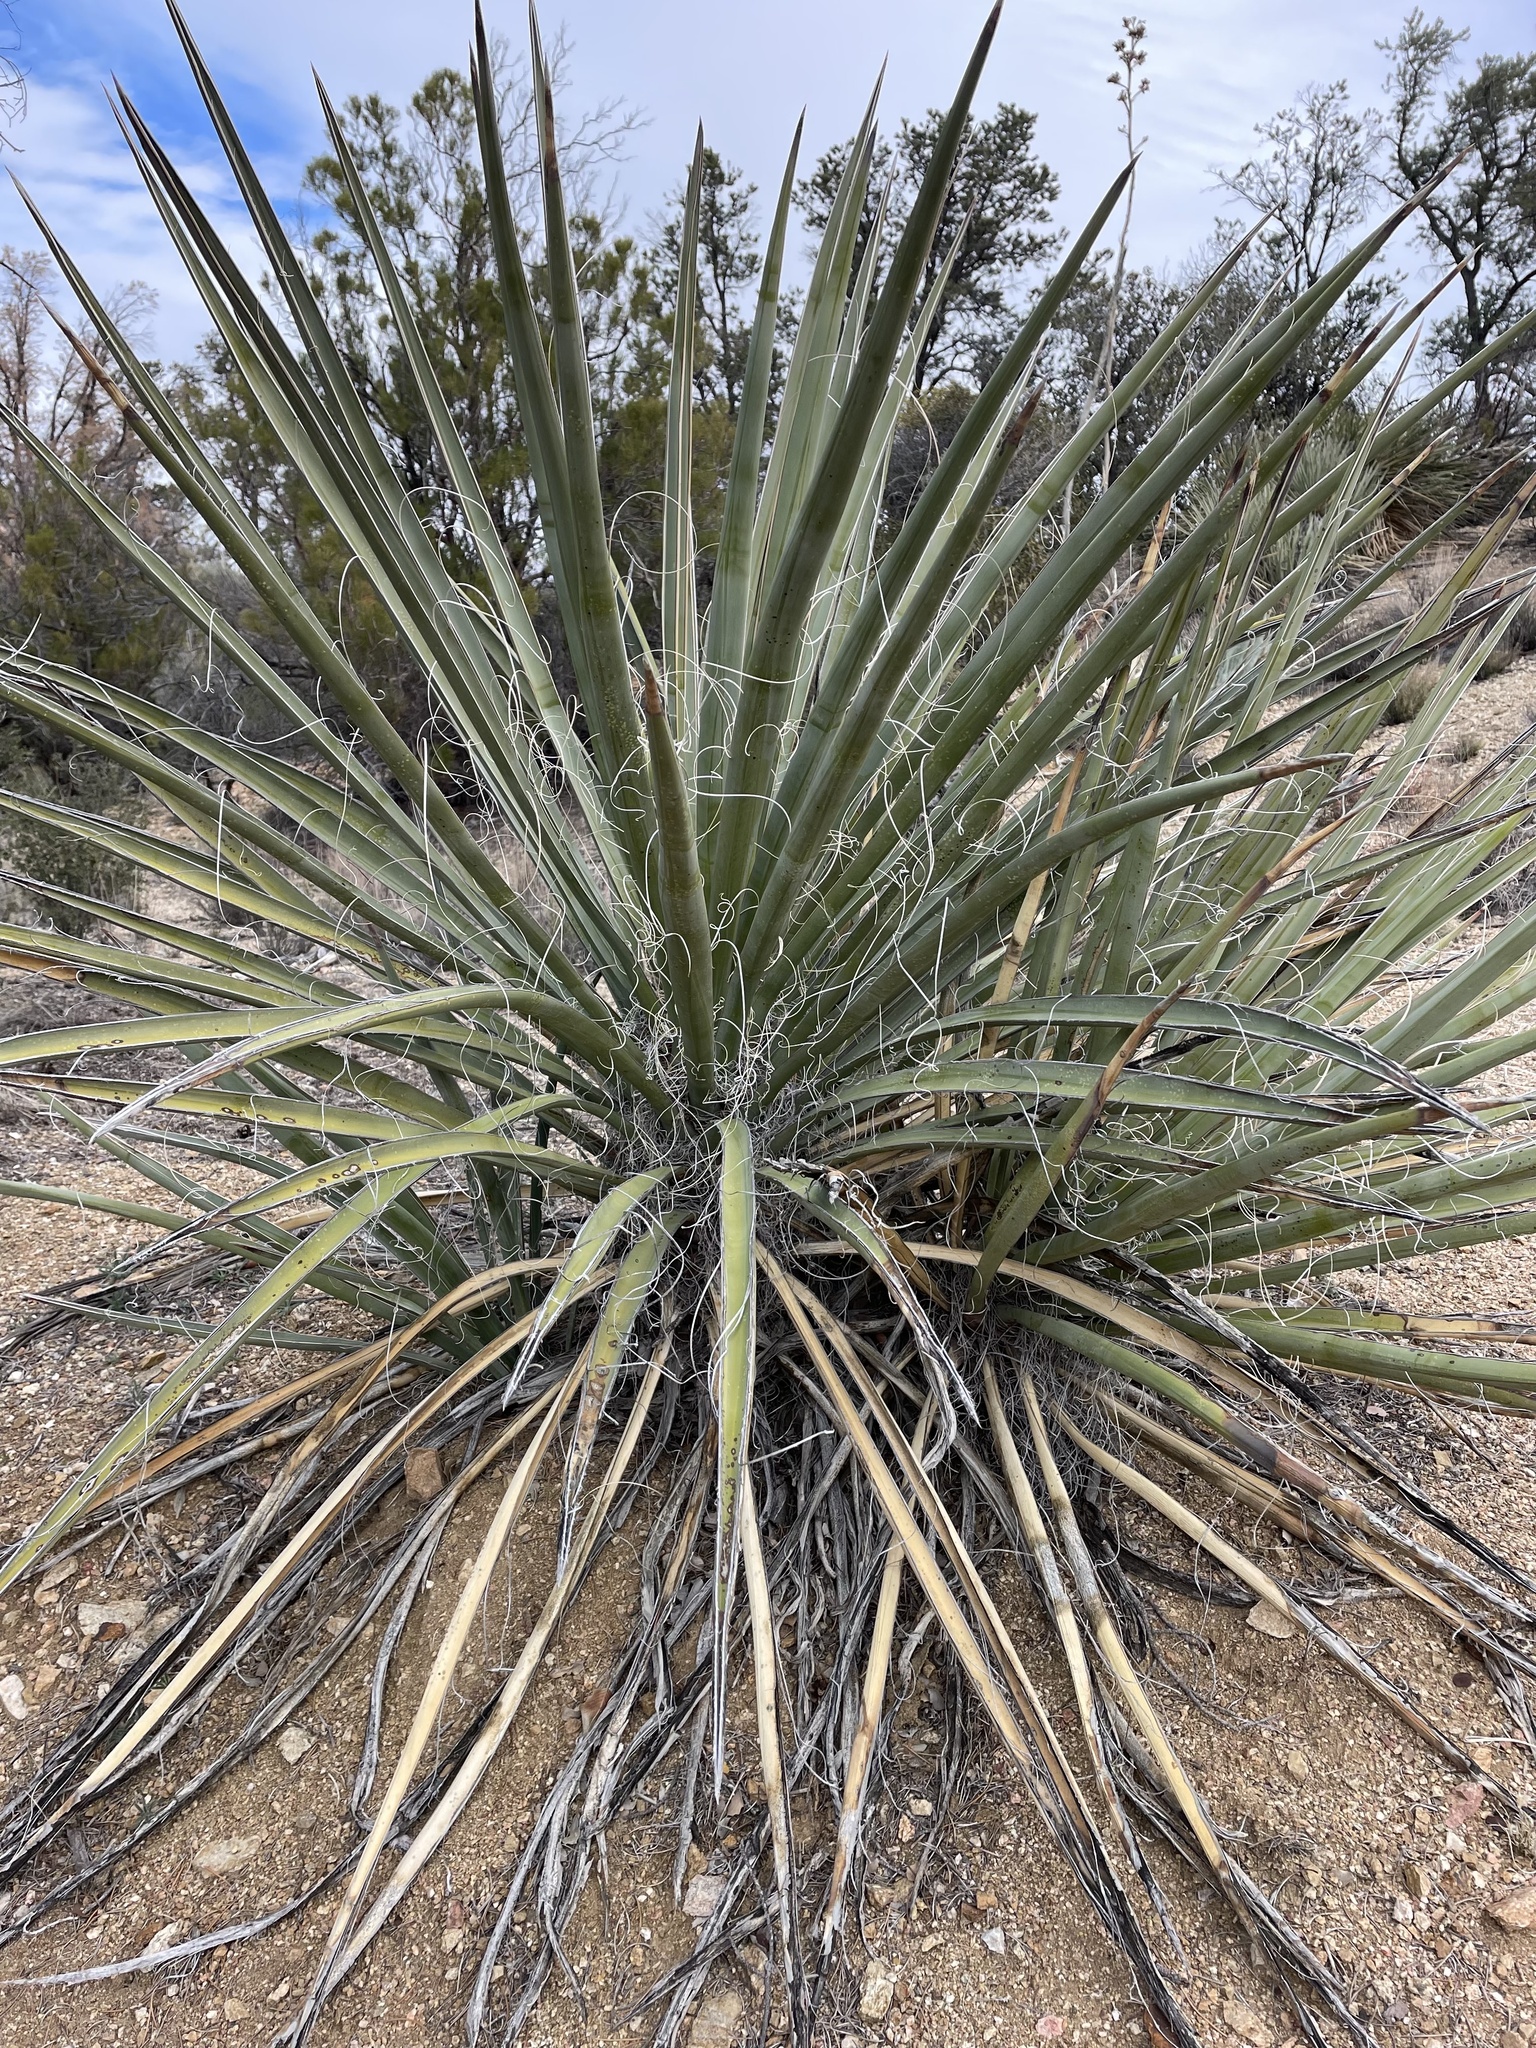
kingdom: Plantae
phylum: Tracheophyta
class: Liliopsida
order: Asparagales
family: Asparagaceae
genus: Yucca
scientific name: Yucca schidigera
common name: Mojave yucca
